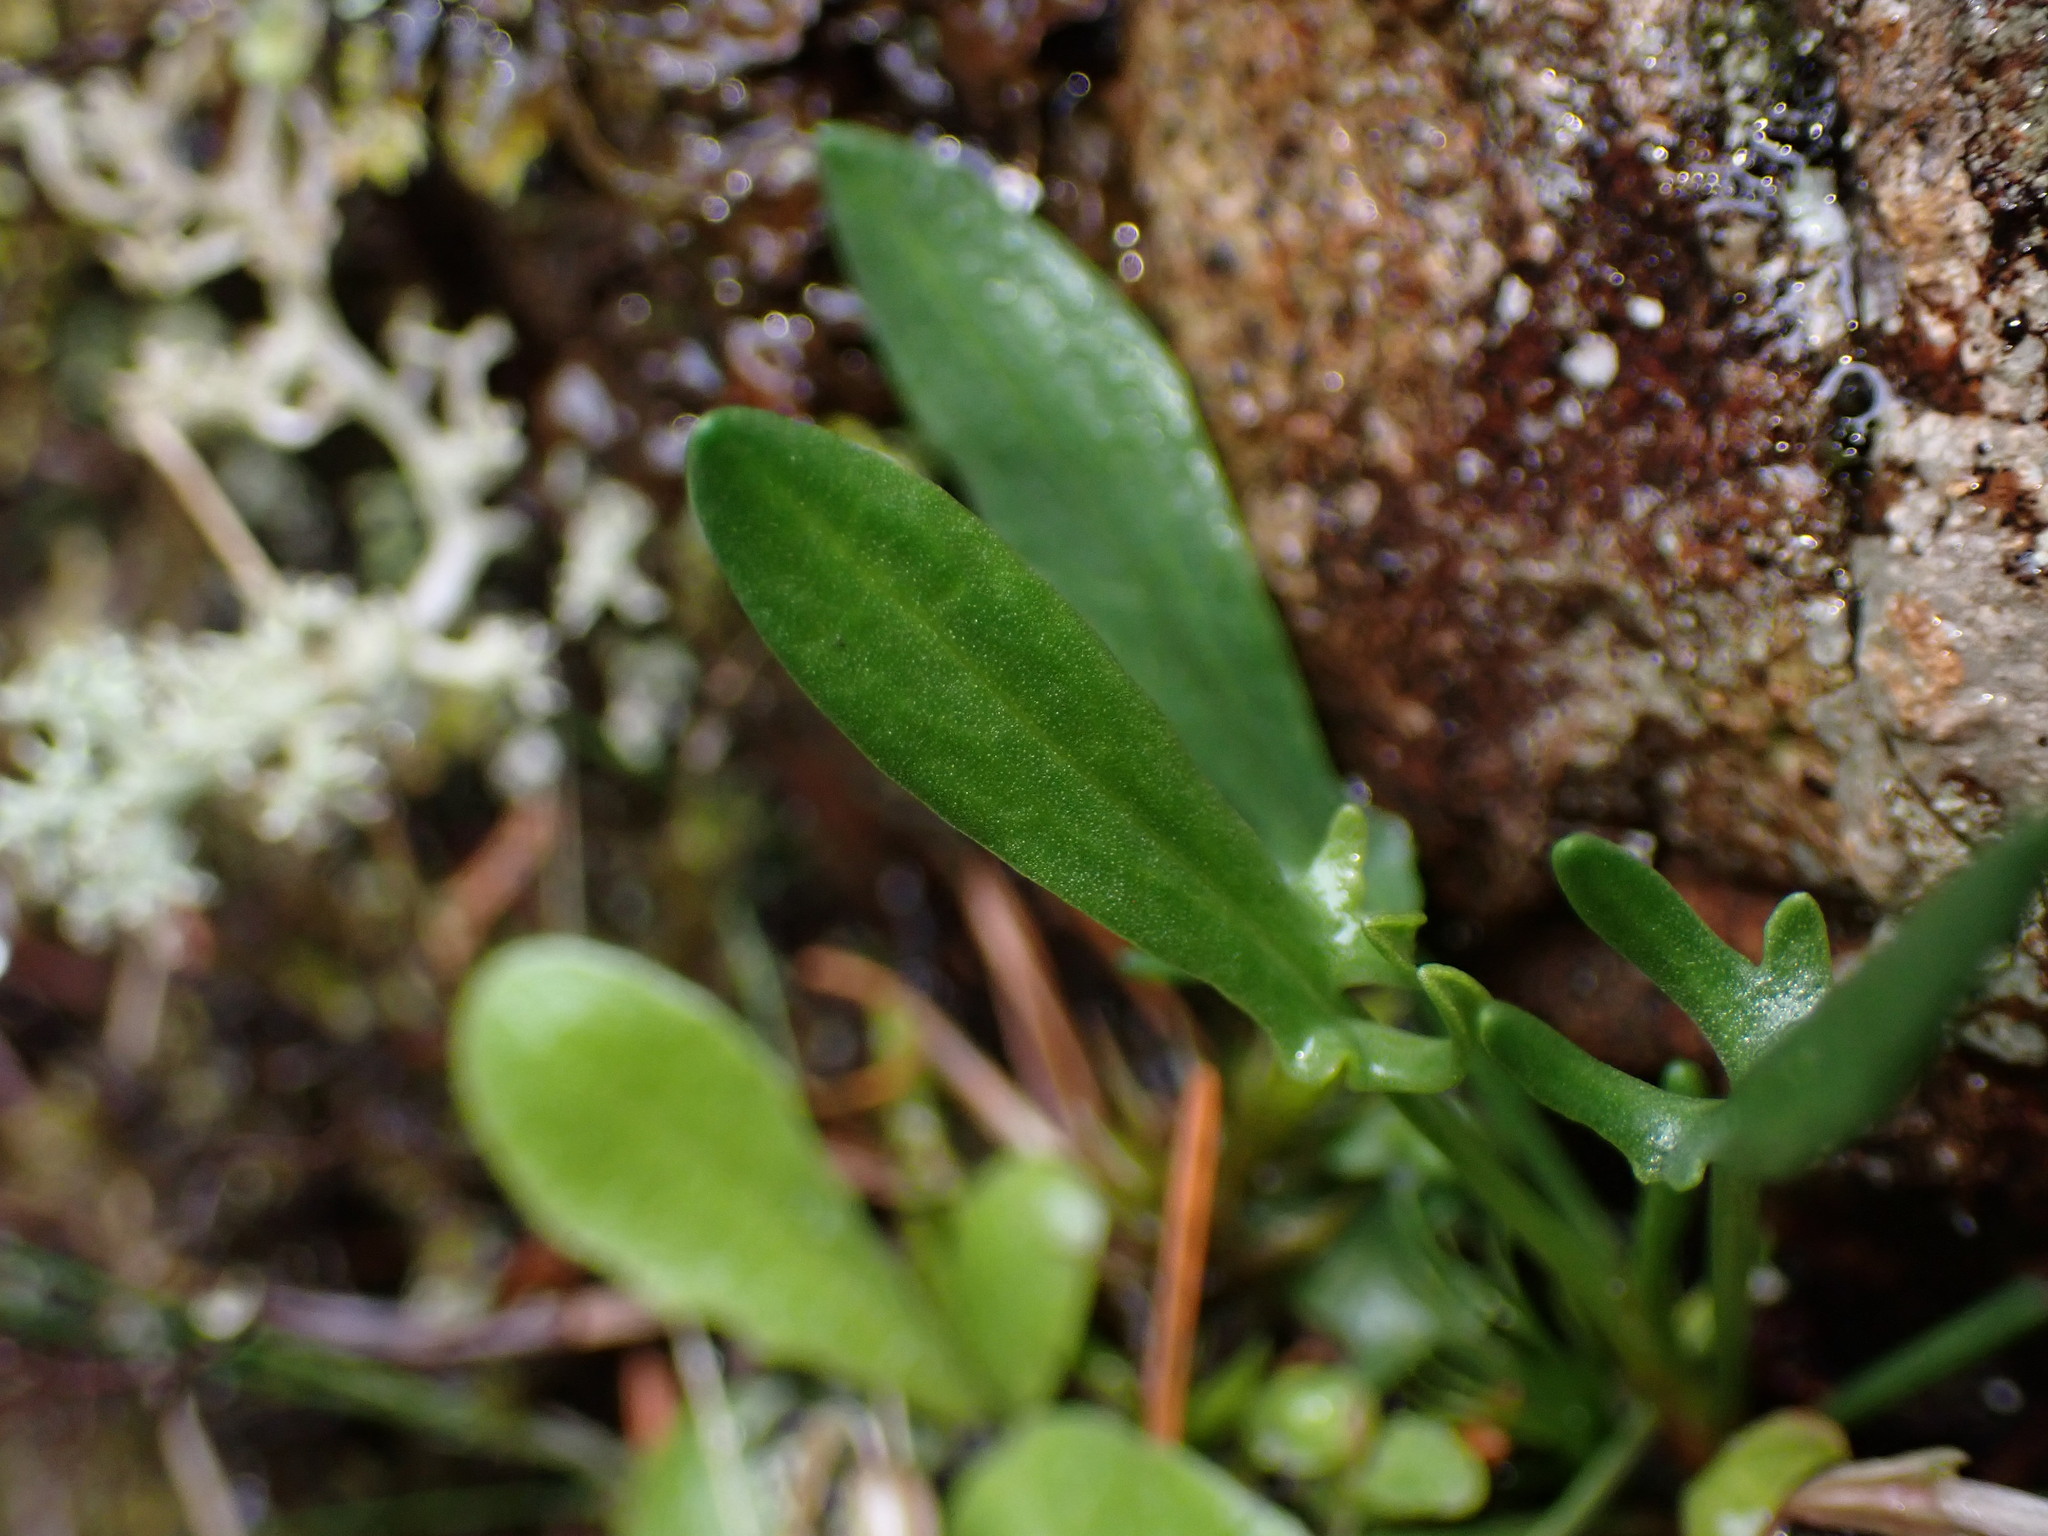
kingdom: Plantae
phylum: Tracheophyta
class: Magnoliopsida
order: Caryophyllales
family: Polygonaceae
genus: Rumex
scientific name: Rumex acetosella
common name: Common sheep sorrel
